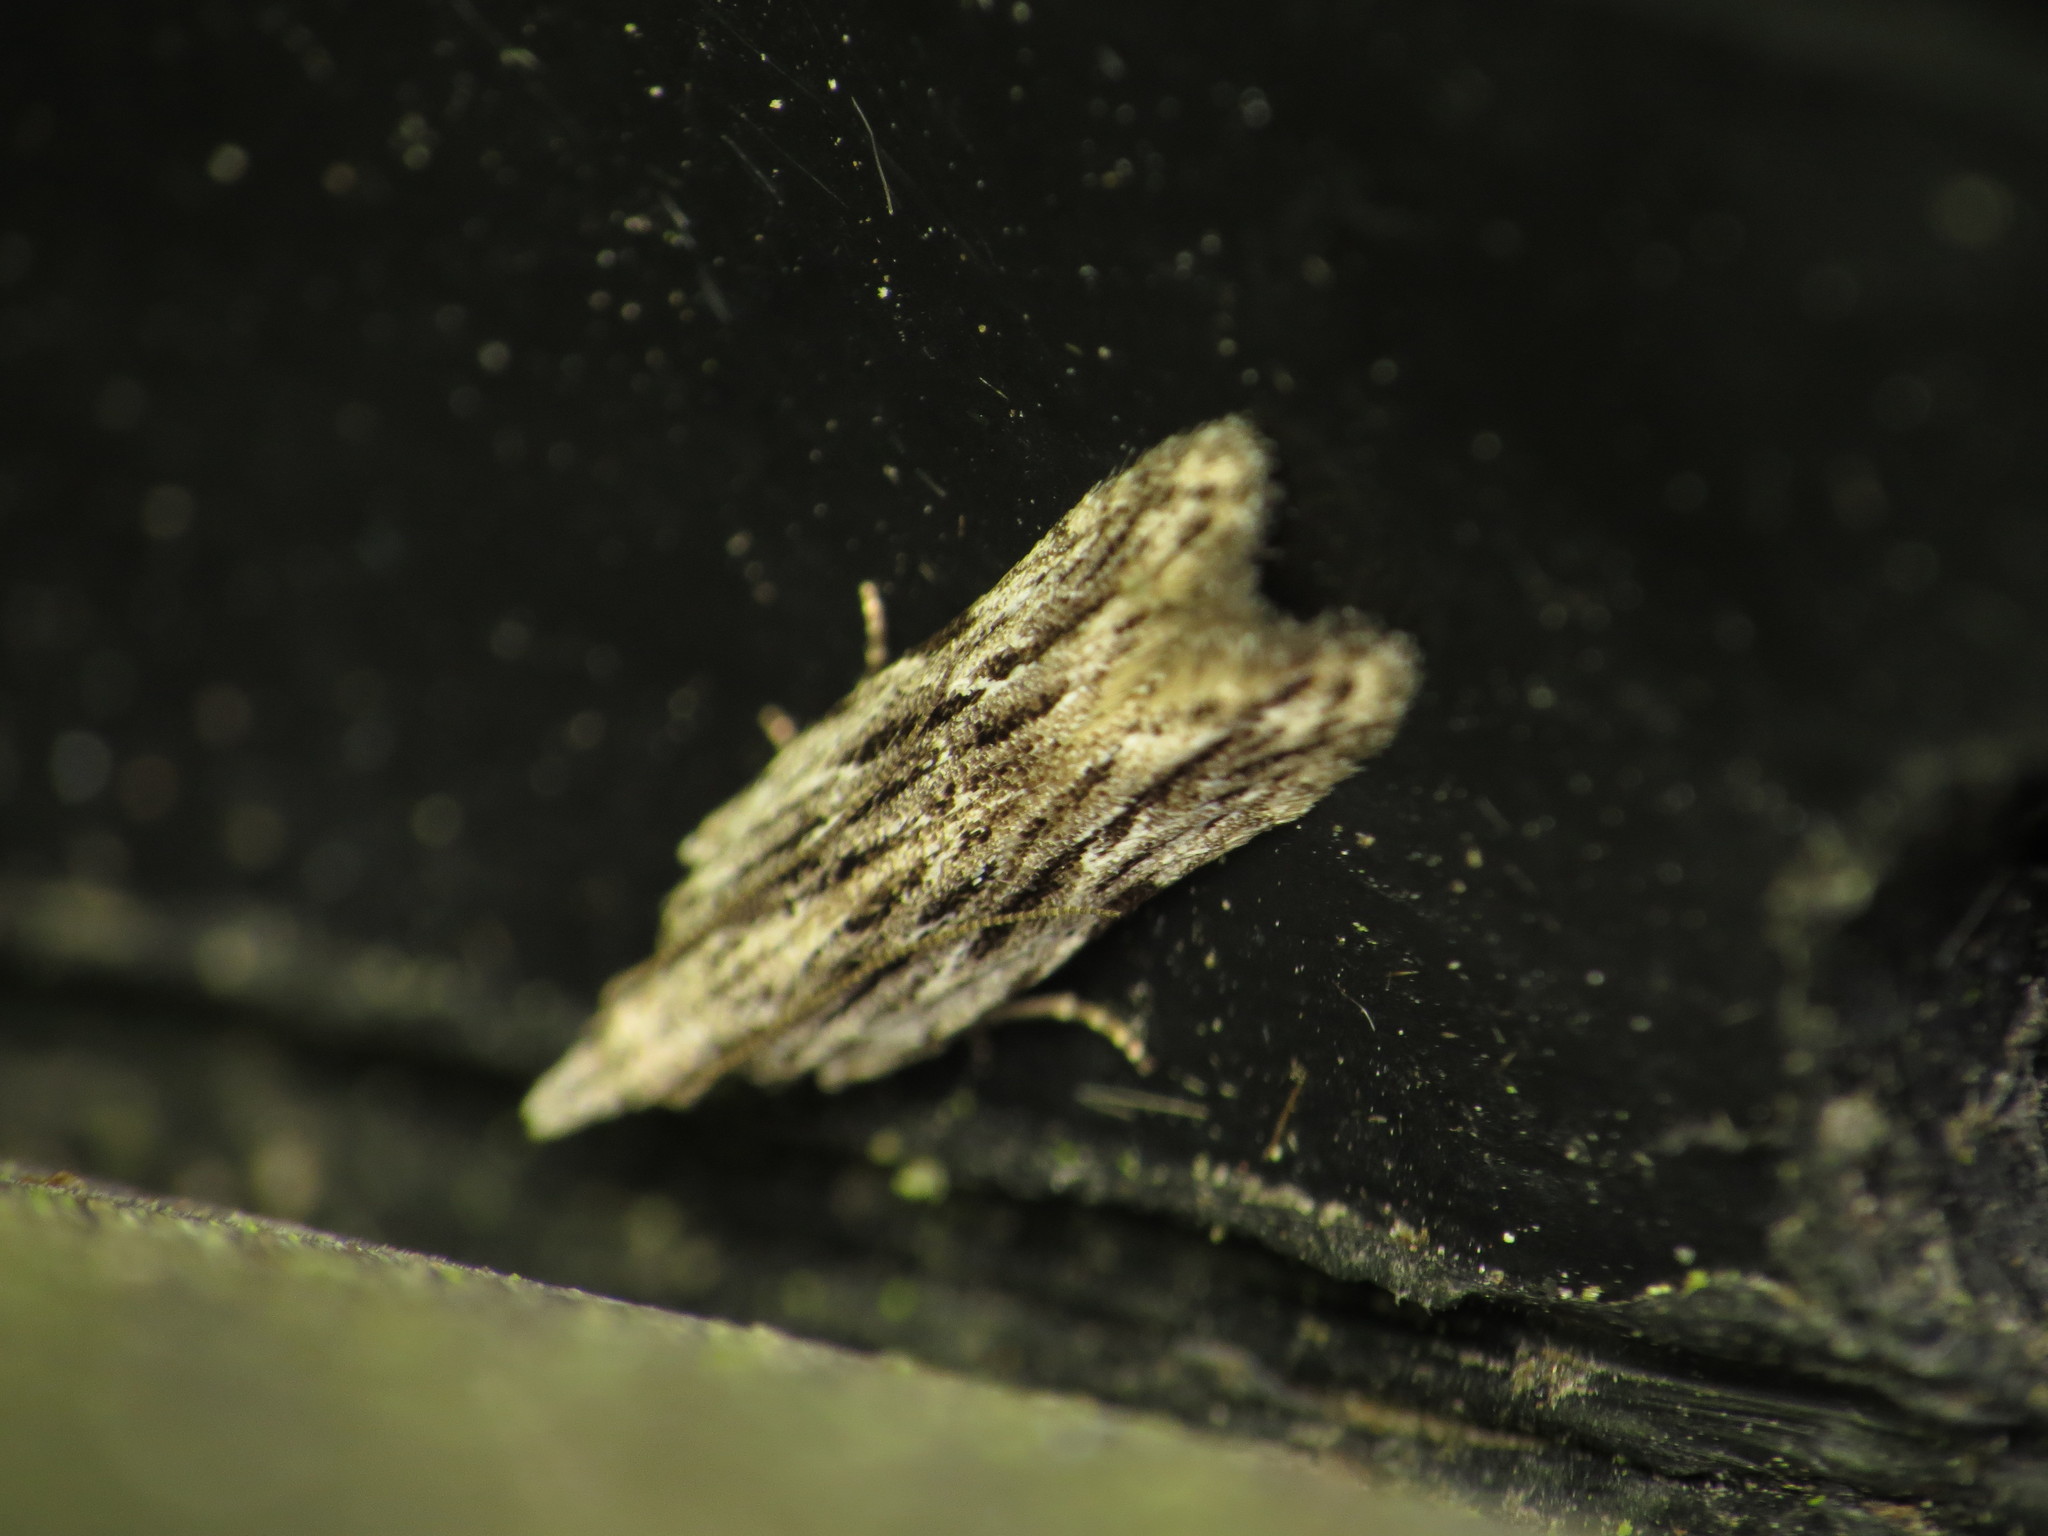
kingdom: Animalia
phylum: Arthropoda
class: Insecta
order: Lepidoptera
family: Gelechiidae
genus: Anarsia
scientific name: Anarsia innoxiella
